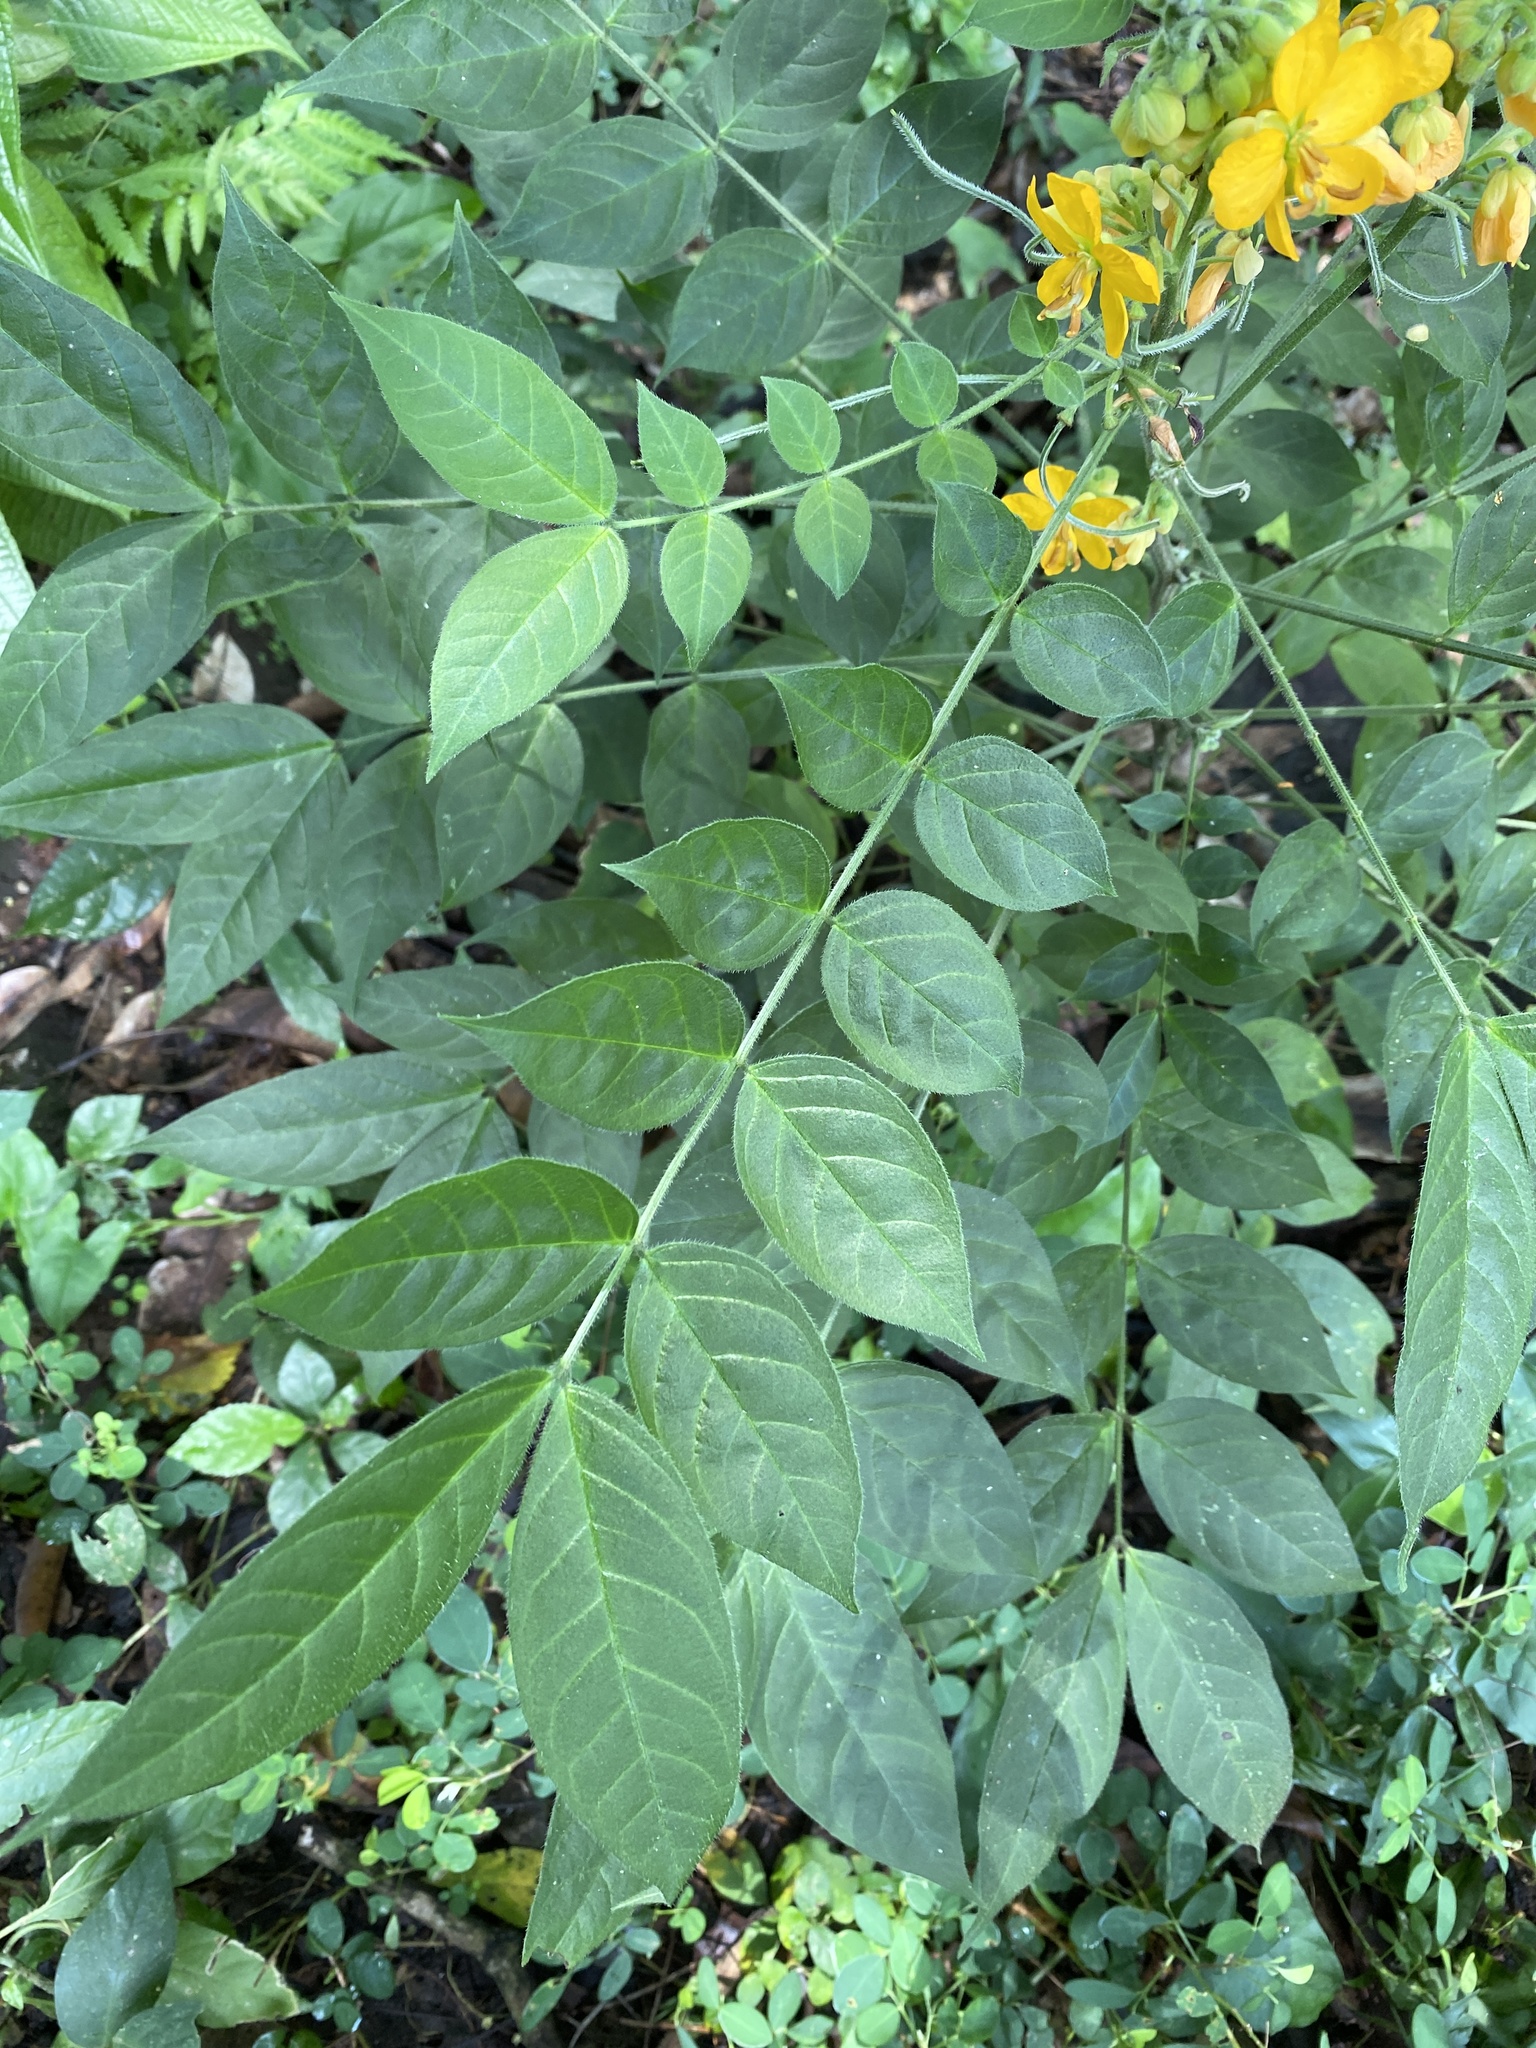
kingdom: Plantae
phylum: Tracheophyta
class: Magnoliopsida
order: Fabales
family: Fabaceae
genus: Senna
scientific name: Senna hirsuta
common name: Woolly senna
